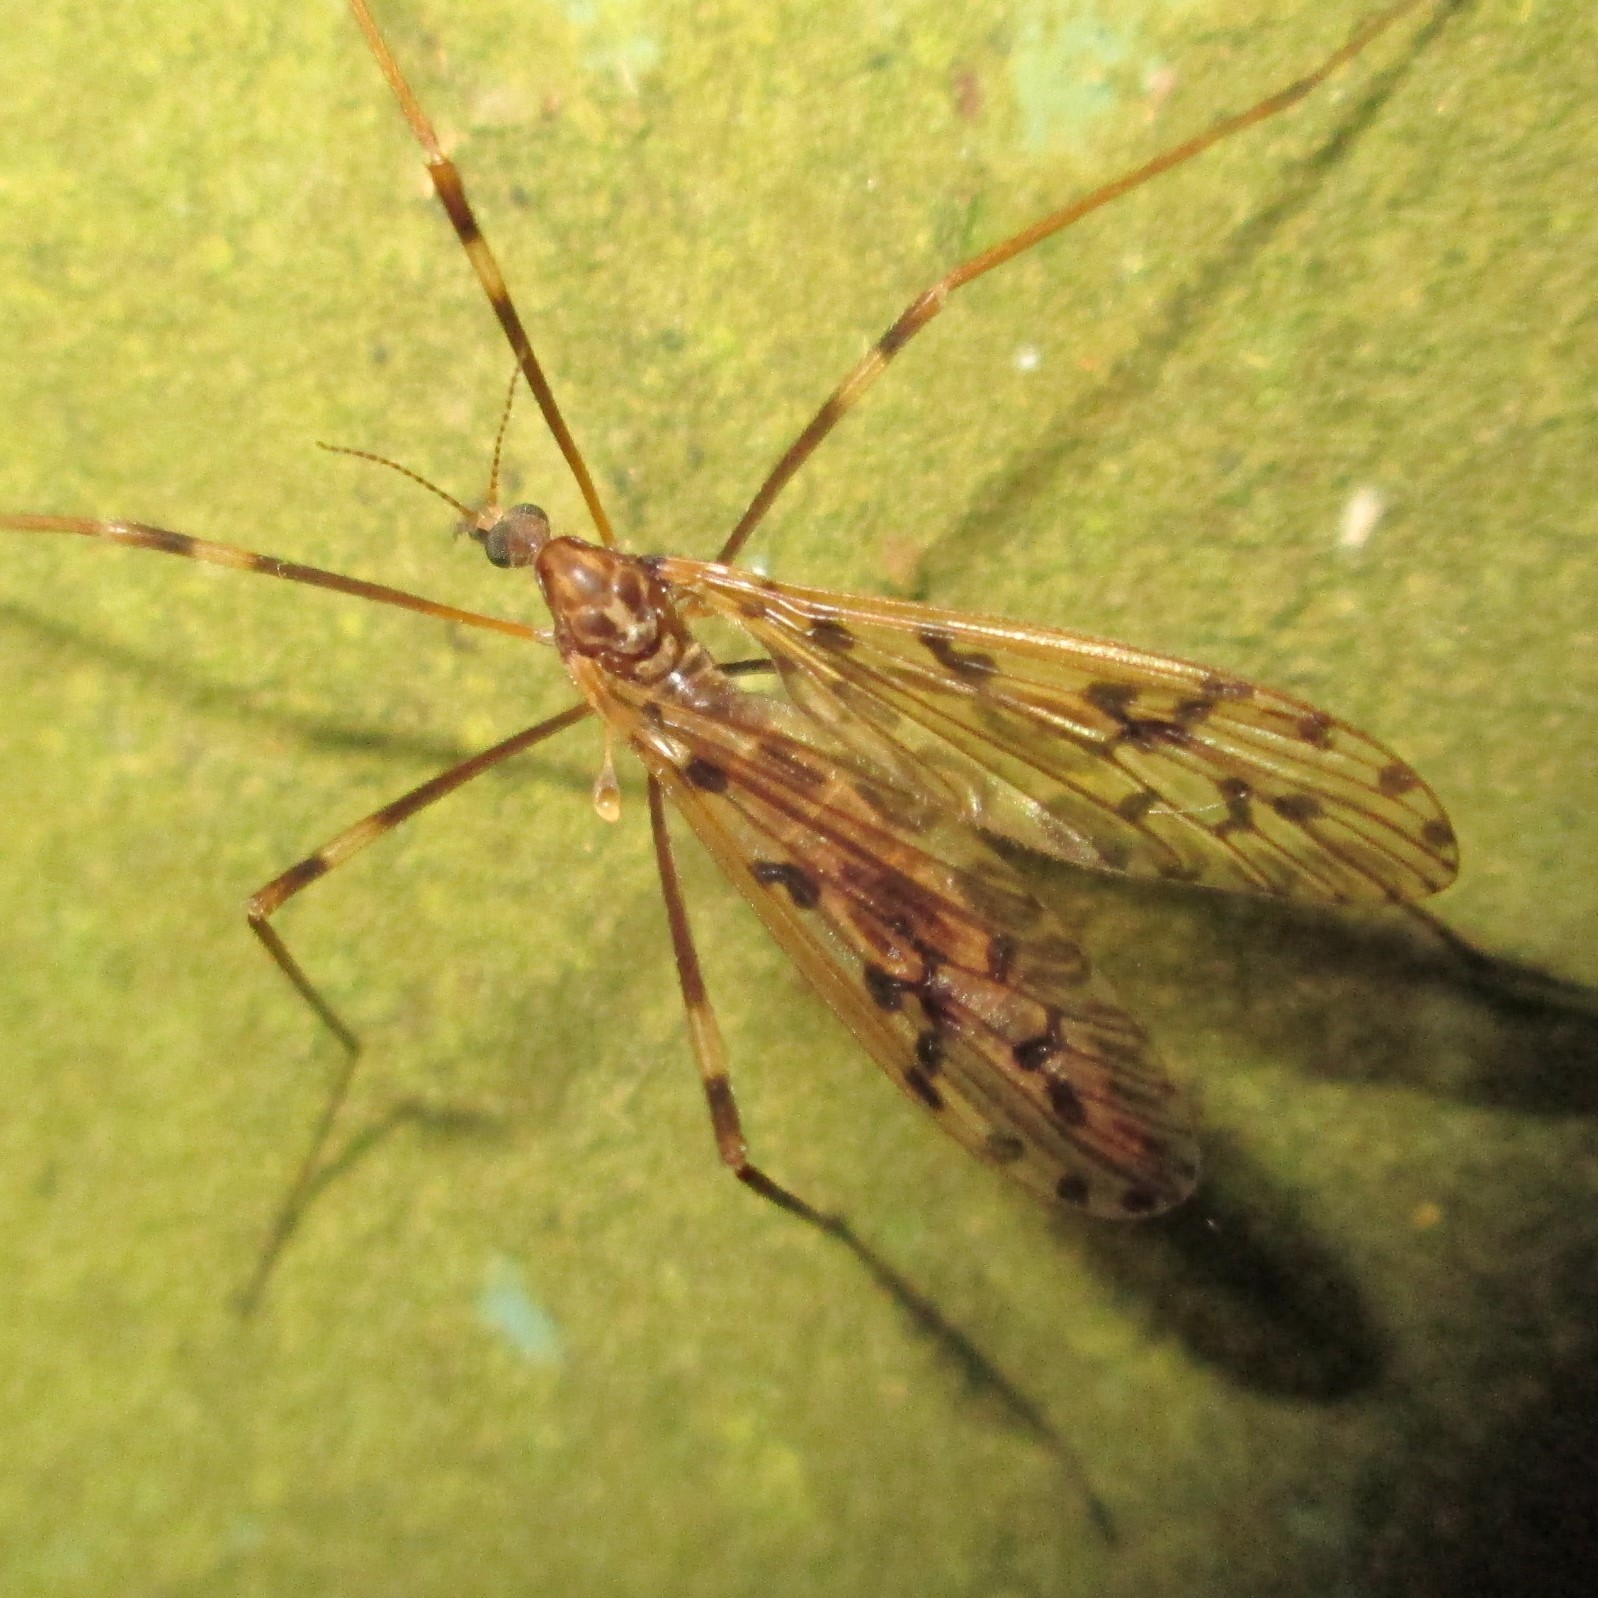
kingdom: Animalia
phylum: Arthropoda
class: Insecta
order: Diptera
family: Limoniidae
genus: Austrolimnophila
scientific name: Austrolimnophila agathicola
